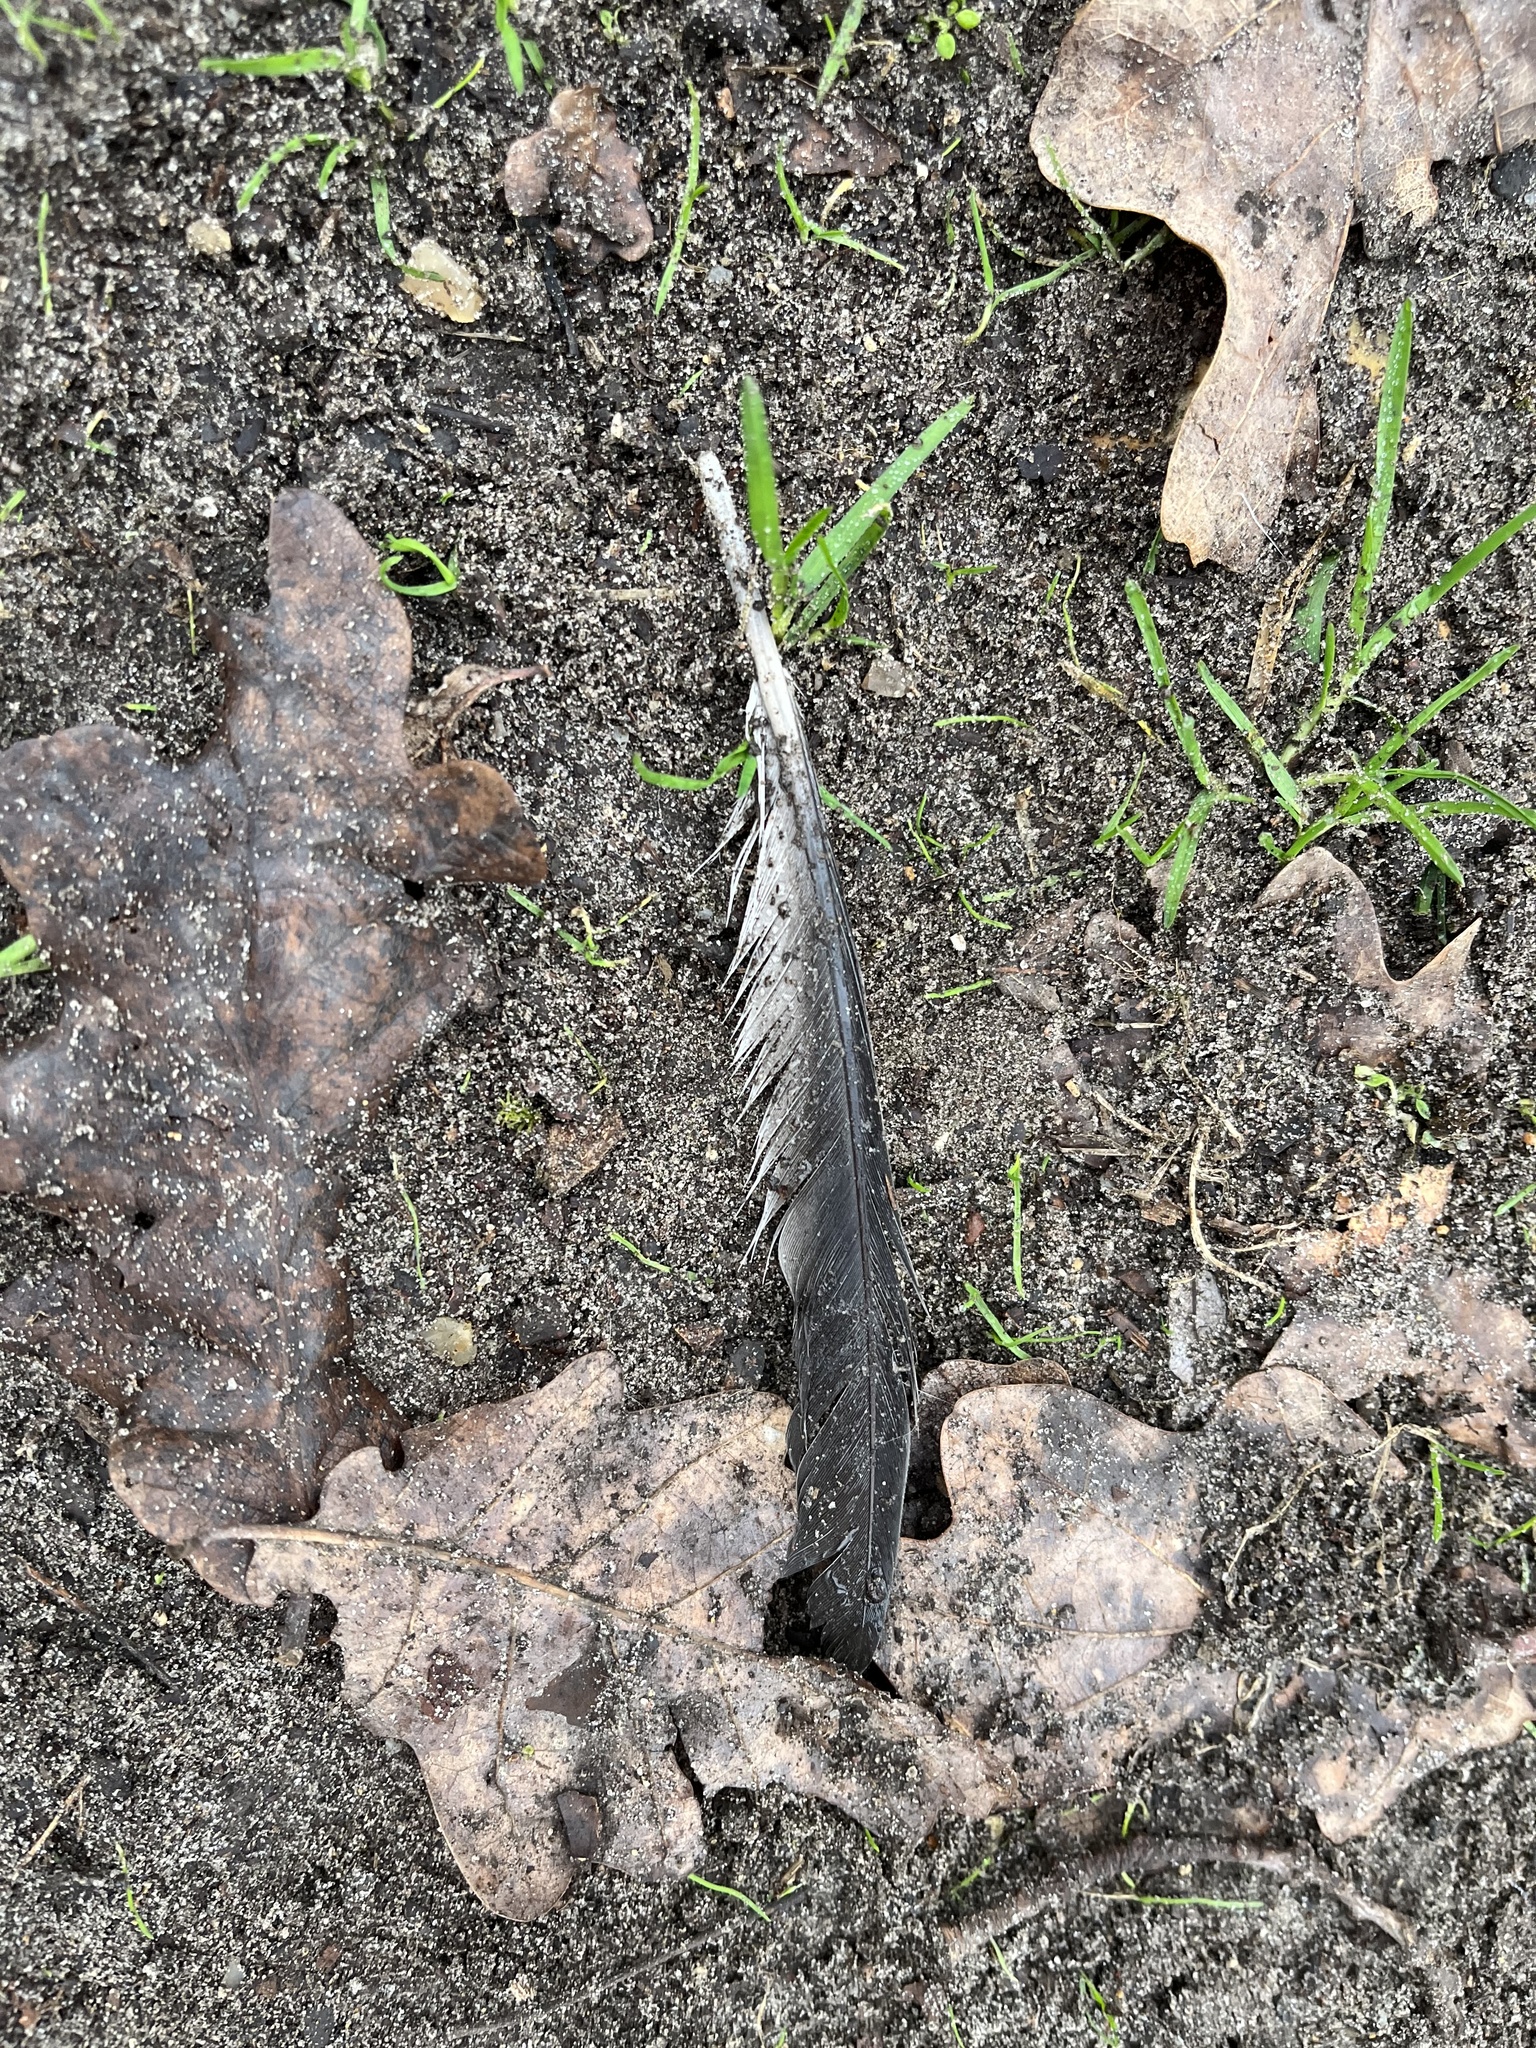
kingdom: Animalia
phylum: Chordata
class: Aves
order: Columbiformes
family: Columbidae
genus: Columba
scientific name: Columba palumbus
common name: Common wood pigeon
